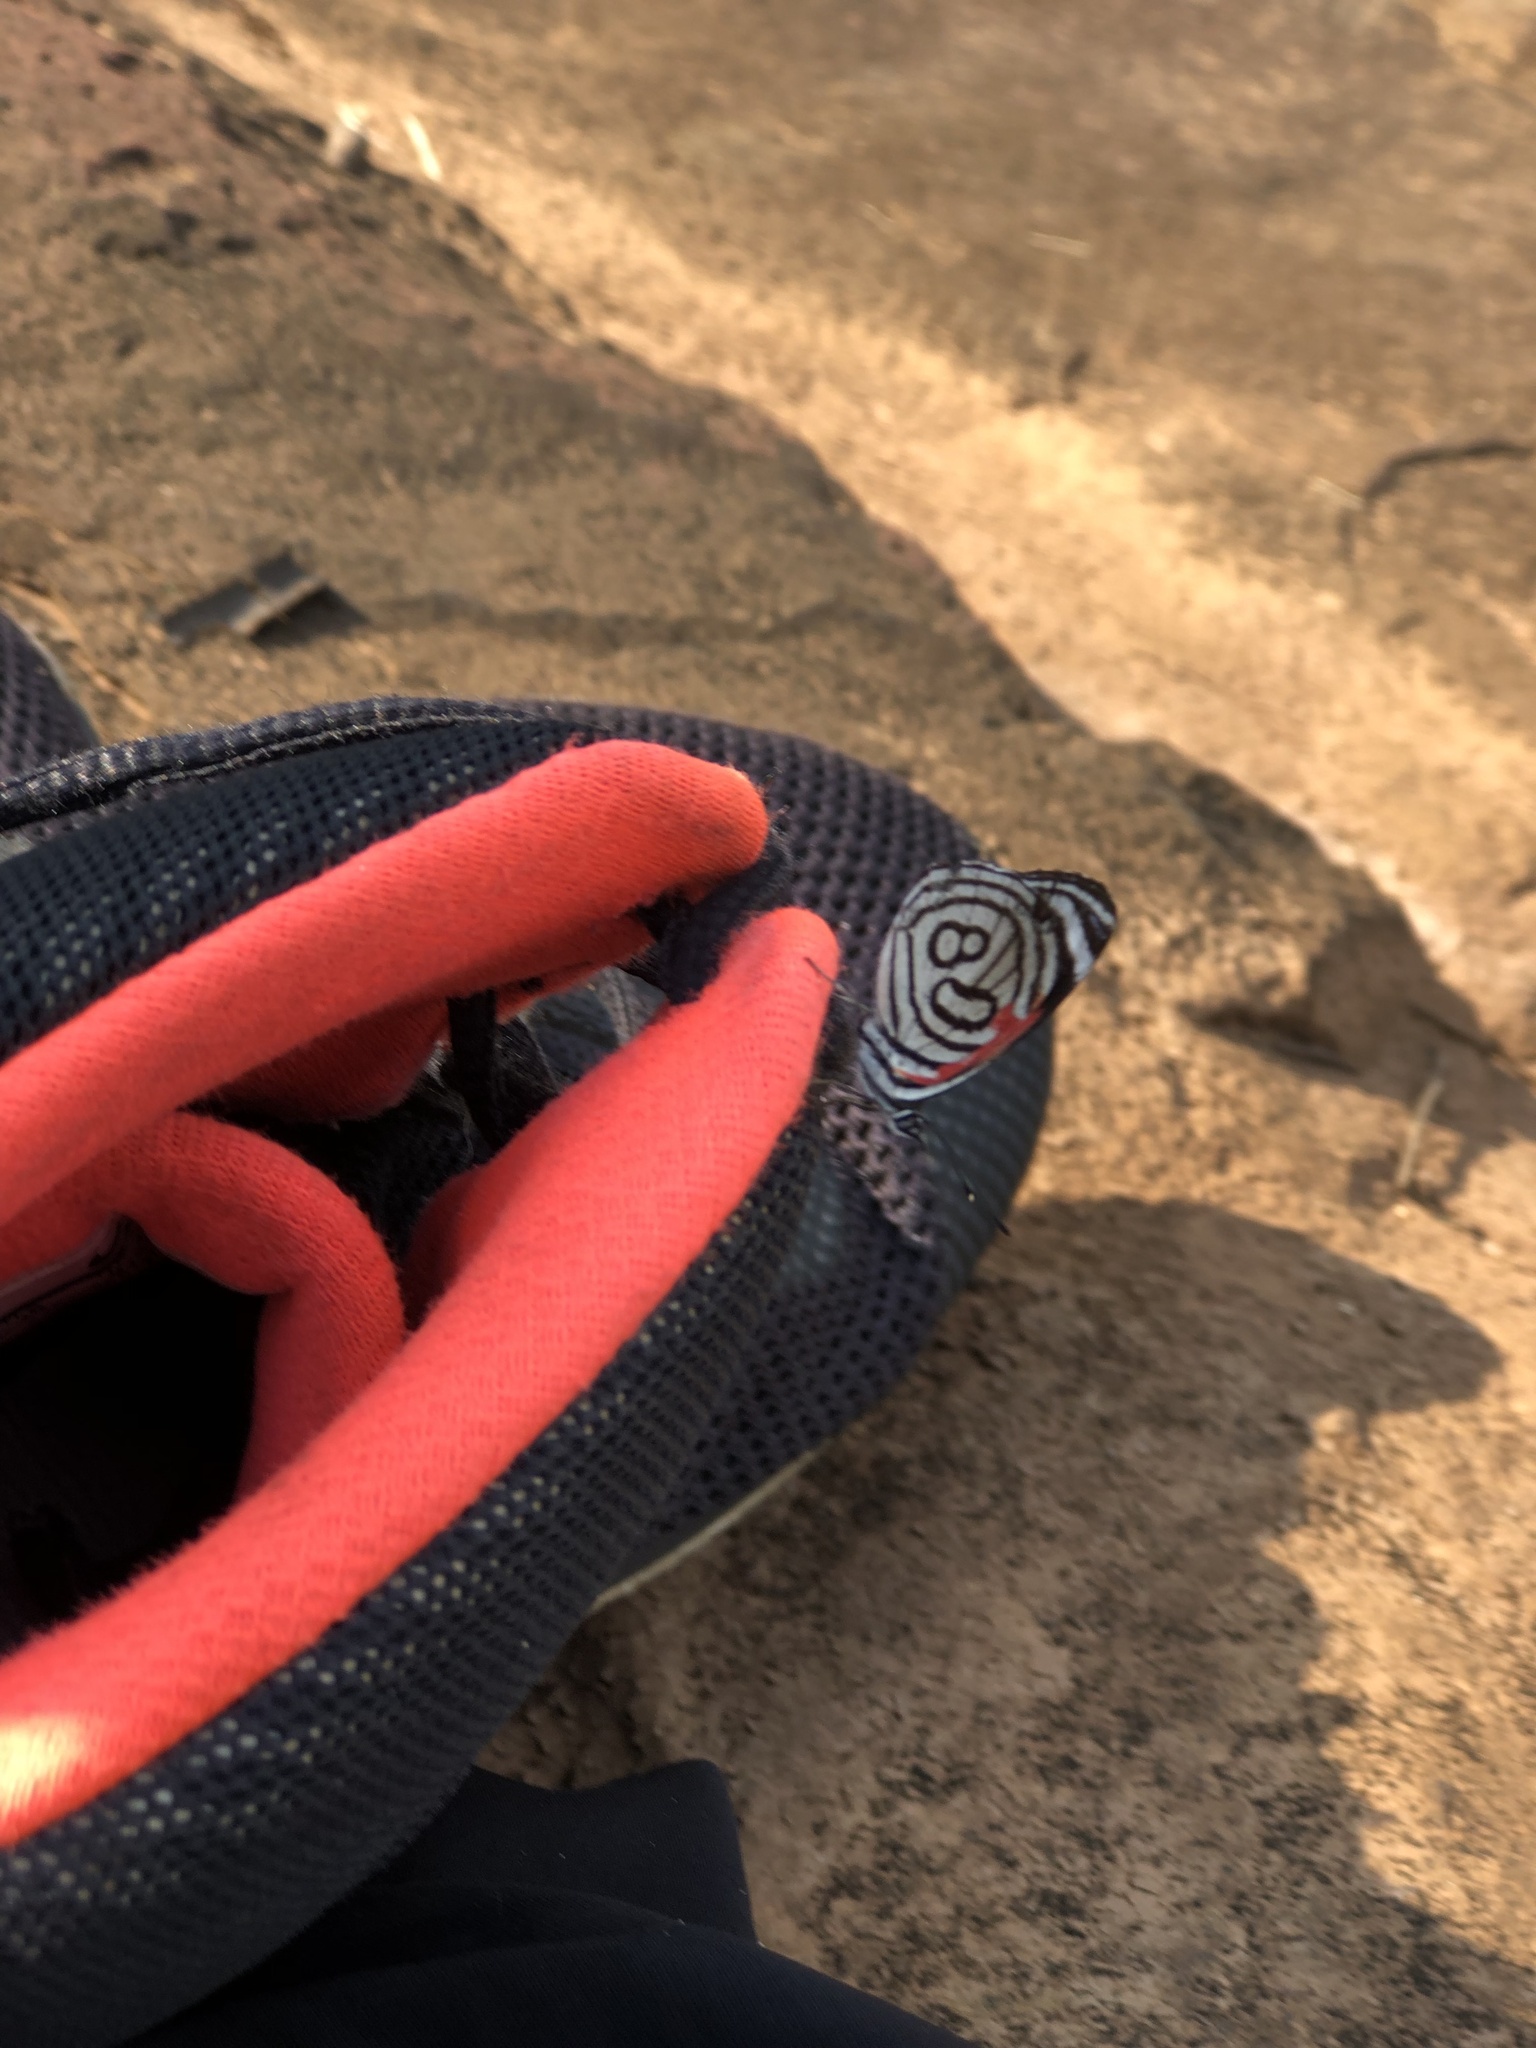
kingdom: Animalia
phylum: Arthropoda
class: Insecta
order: Lepidoptera
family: Nymphalidae
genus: Diaethria
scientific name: Diaethria candrena
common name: Number eighty
